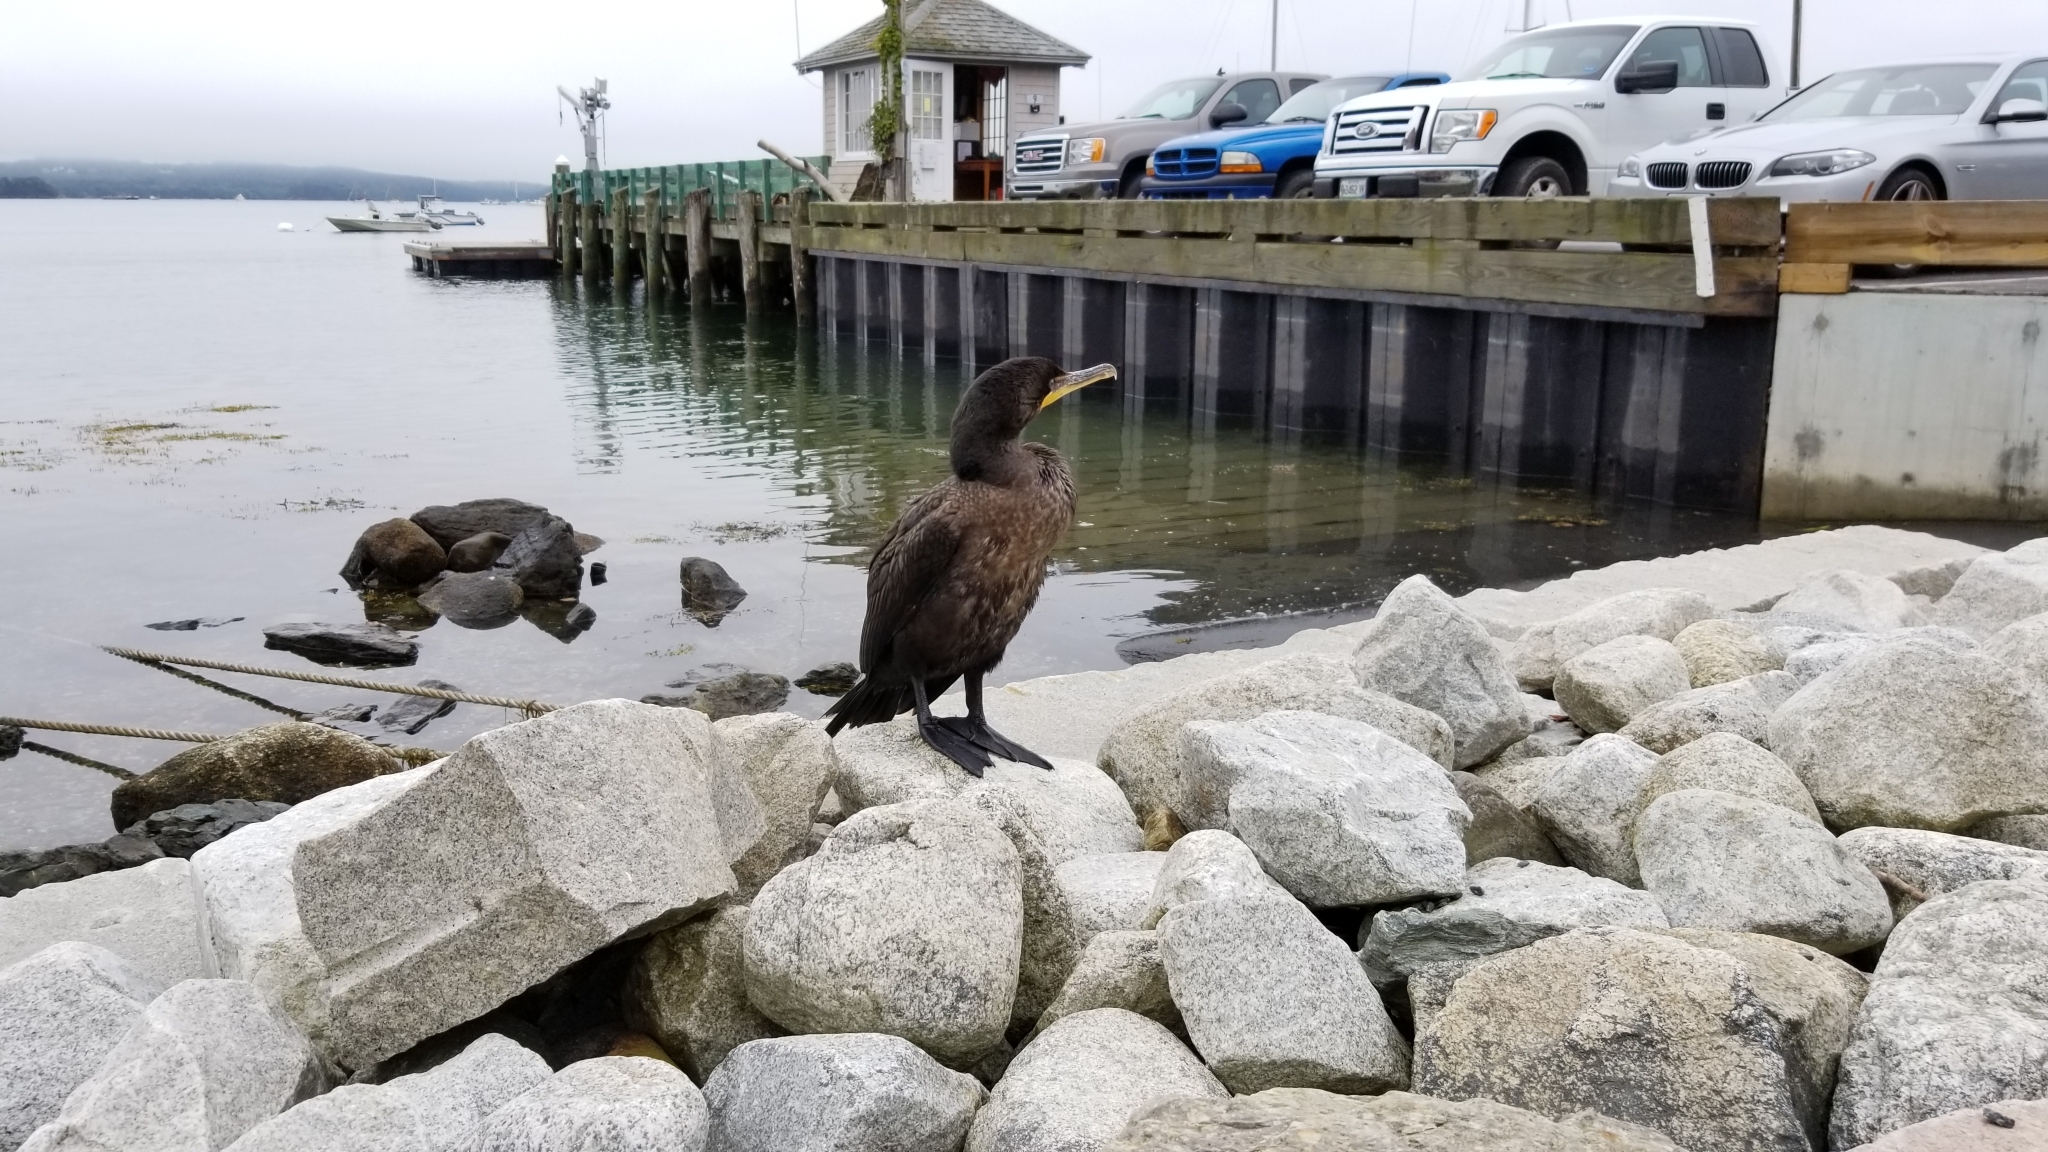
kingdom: Animalia
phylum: Chordata
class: Aves
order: Suliformes
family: Phalacrocoracidae
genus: Phalacrocorax
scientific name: Phalacrocorax auritus
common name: Double-crested cormorant
